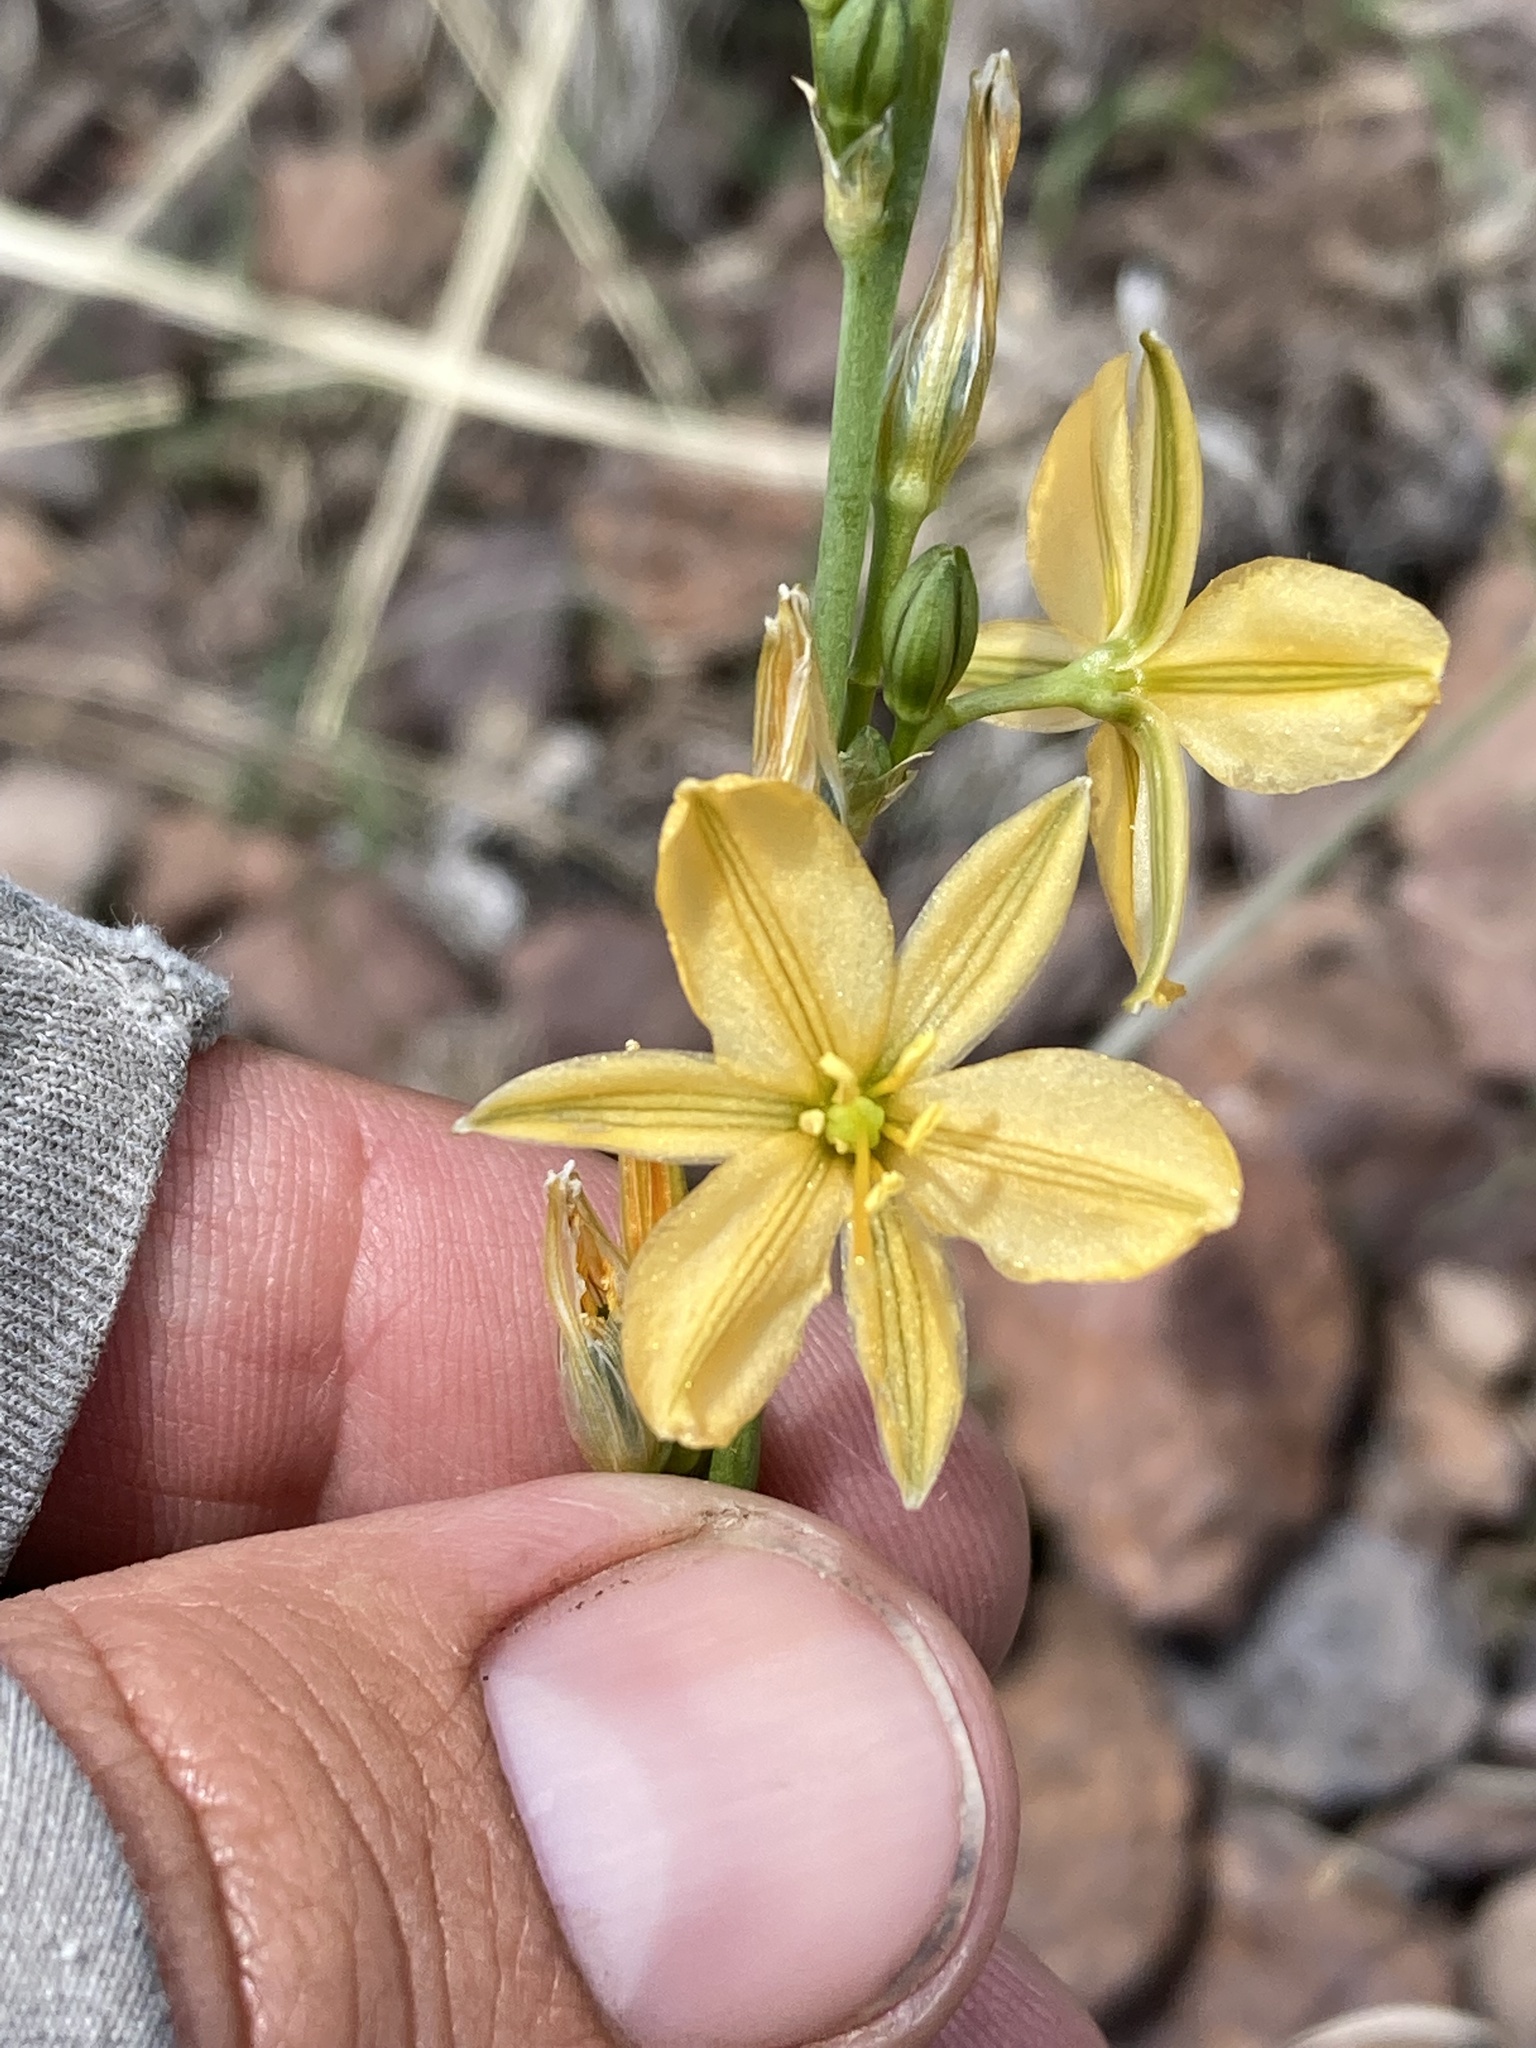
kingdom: Plantae
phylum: Tracheophyta
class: Liliopsida
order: Asparagales
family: Asparagaceae
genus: Echeandia
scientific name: Echeandia flavescens
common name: Amberlily
